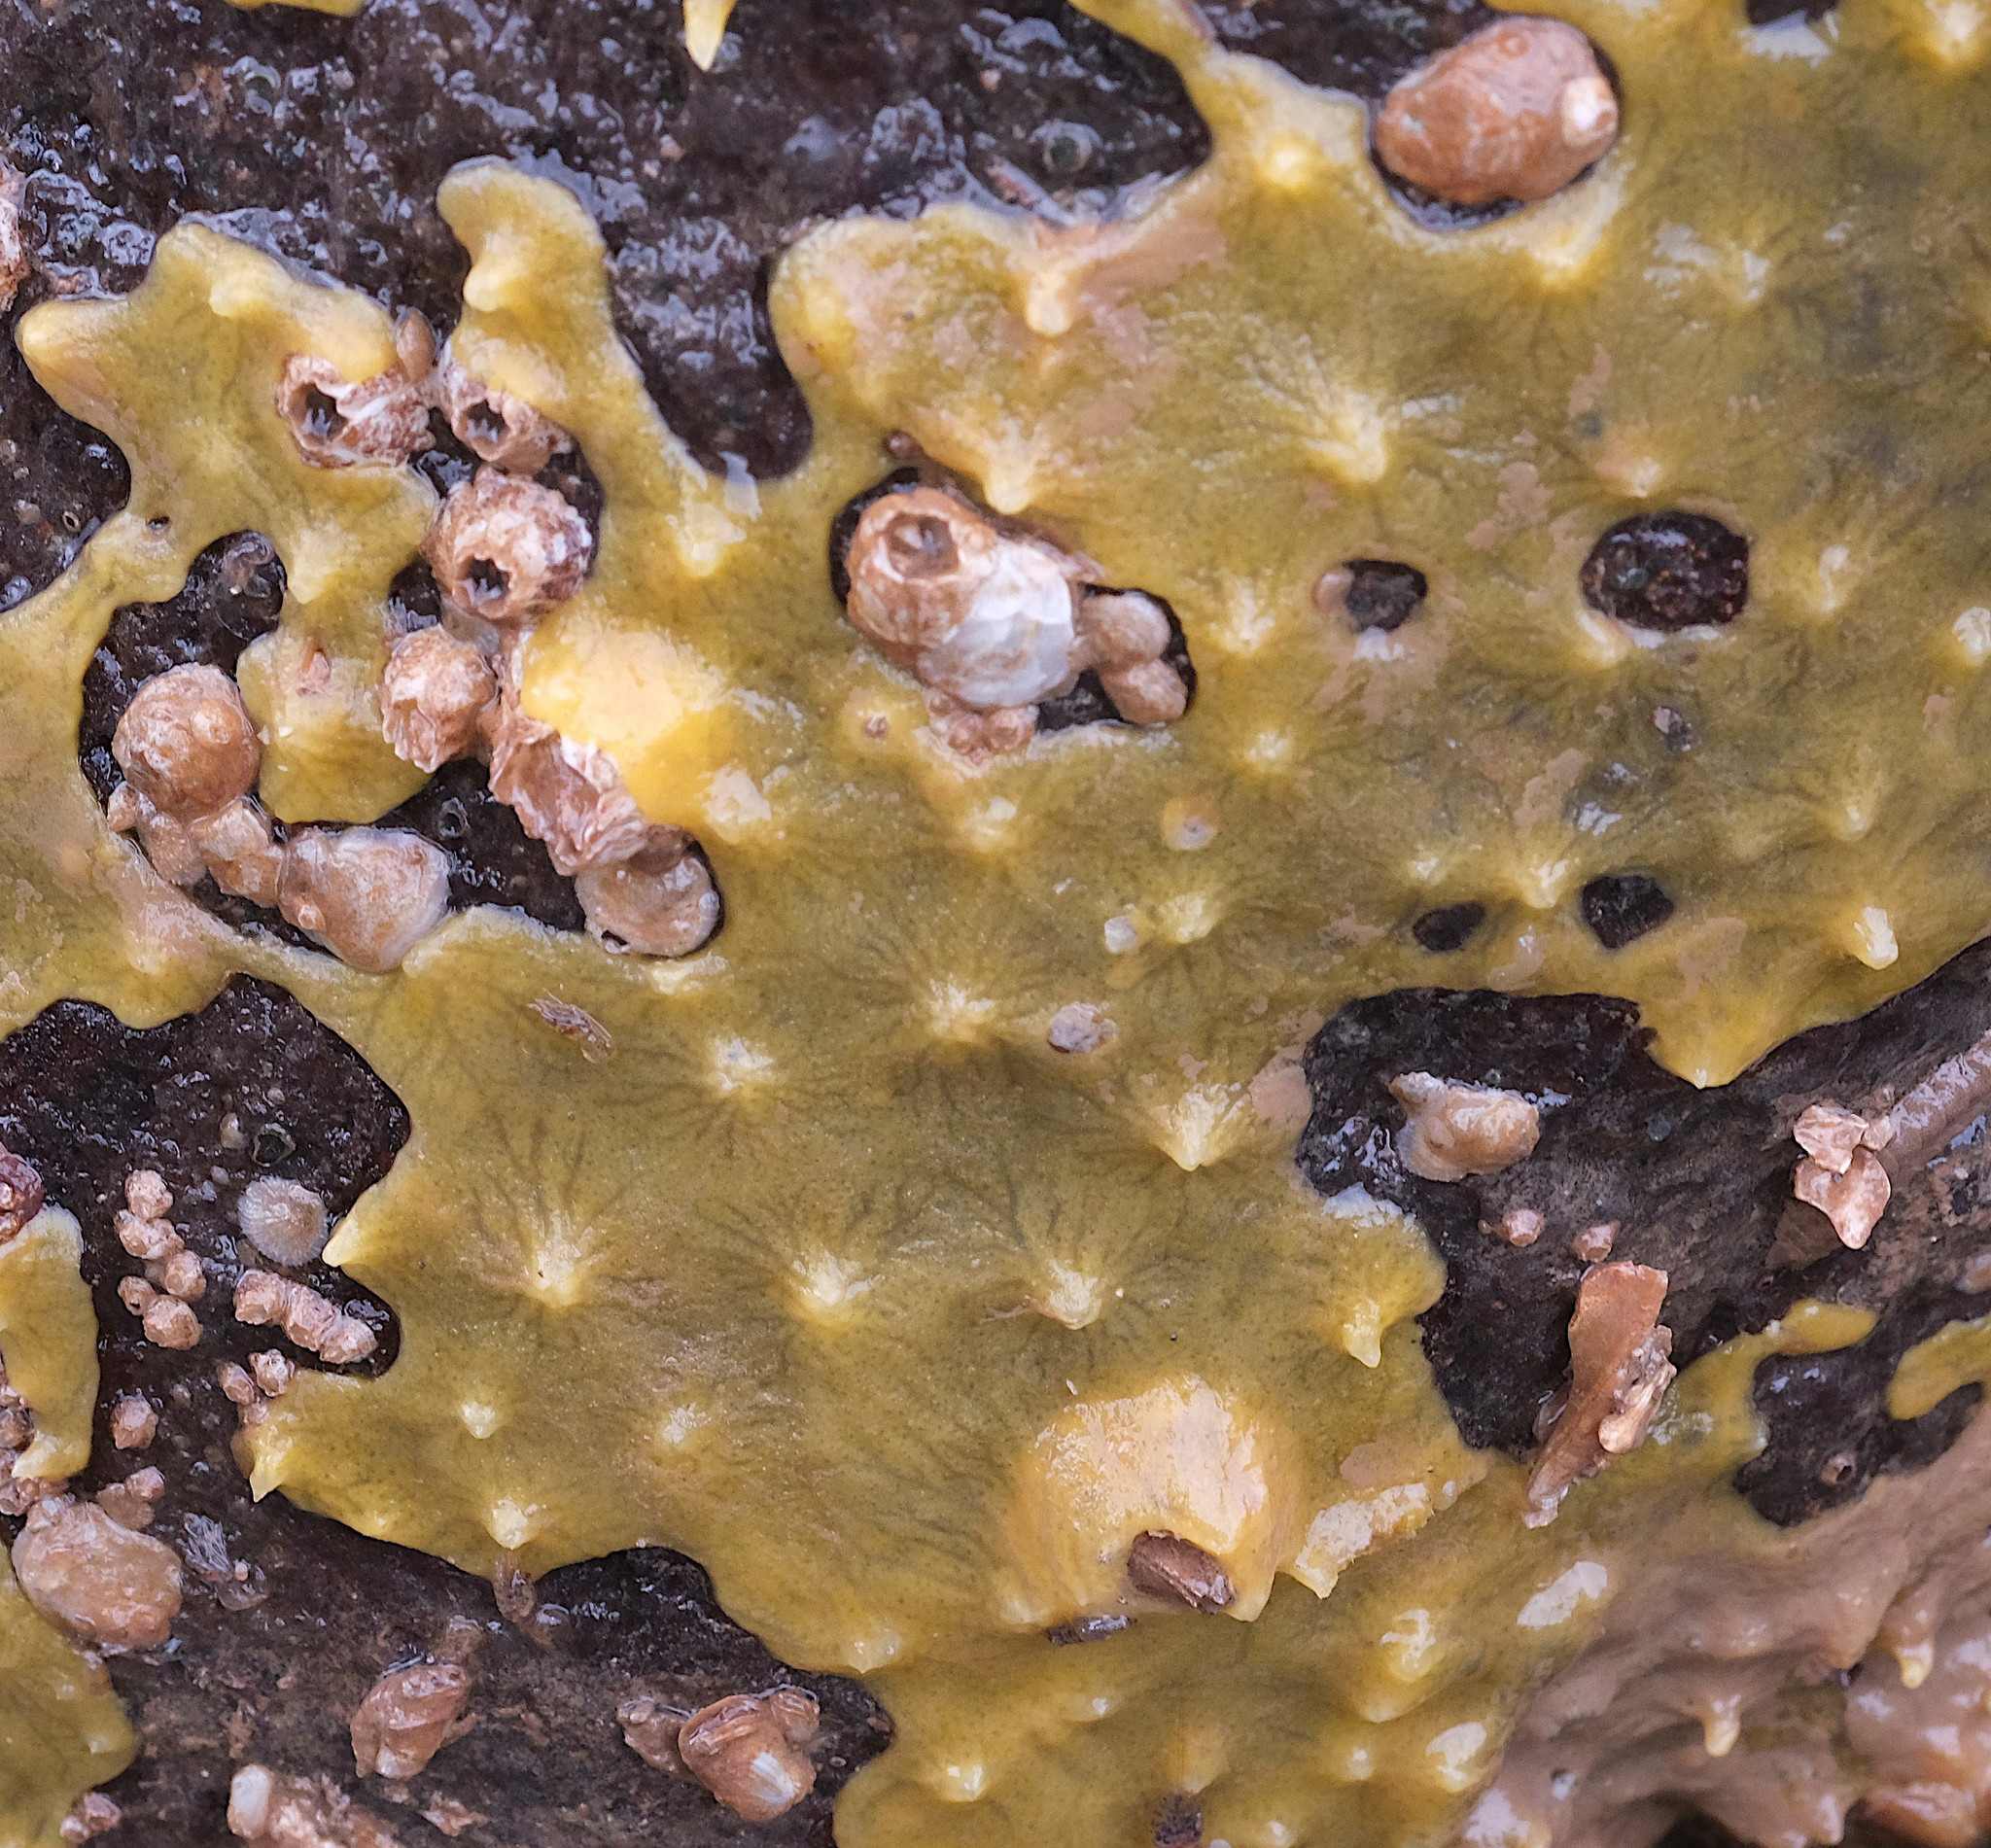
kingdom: Animalia
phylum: Porifera
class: Demospongiae
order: Suberitida
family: Halichondriidae
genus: Halichondria
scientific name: Halichondria panicea
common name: Breadcrumb sponge
